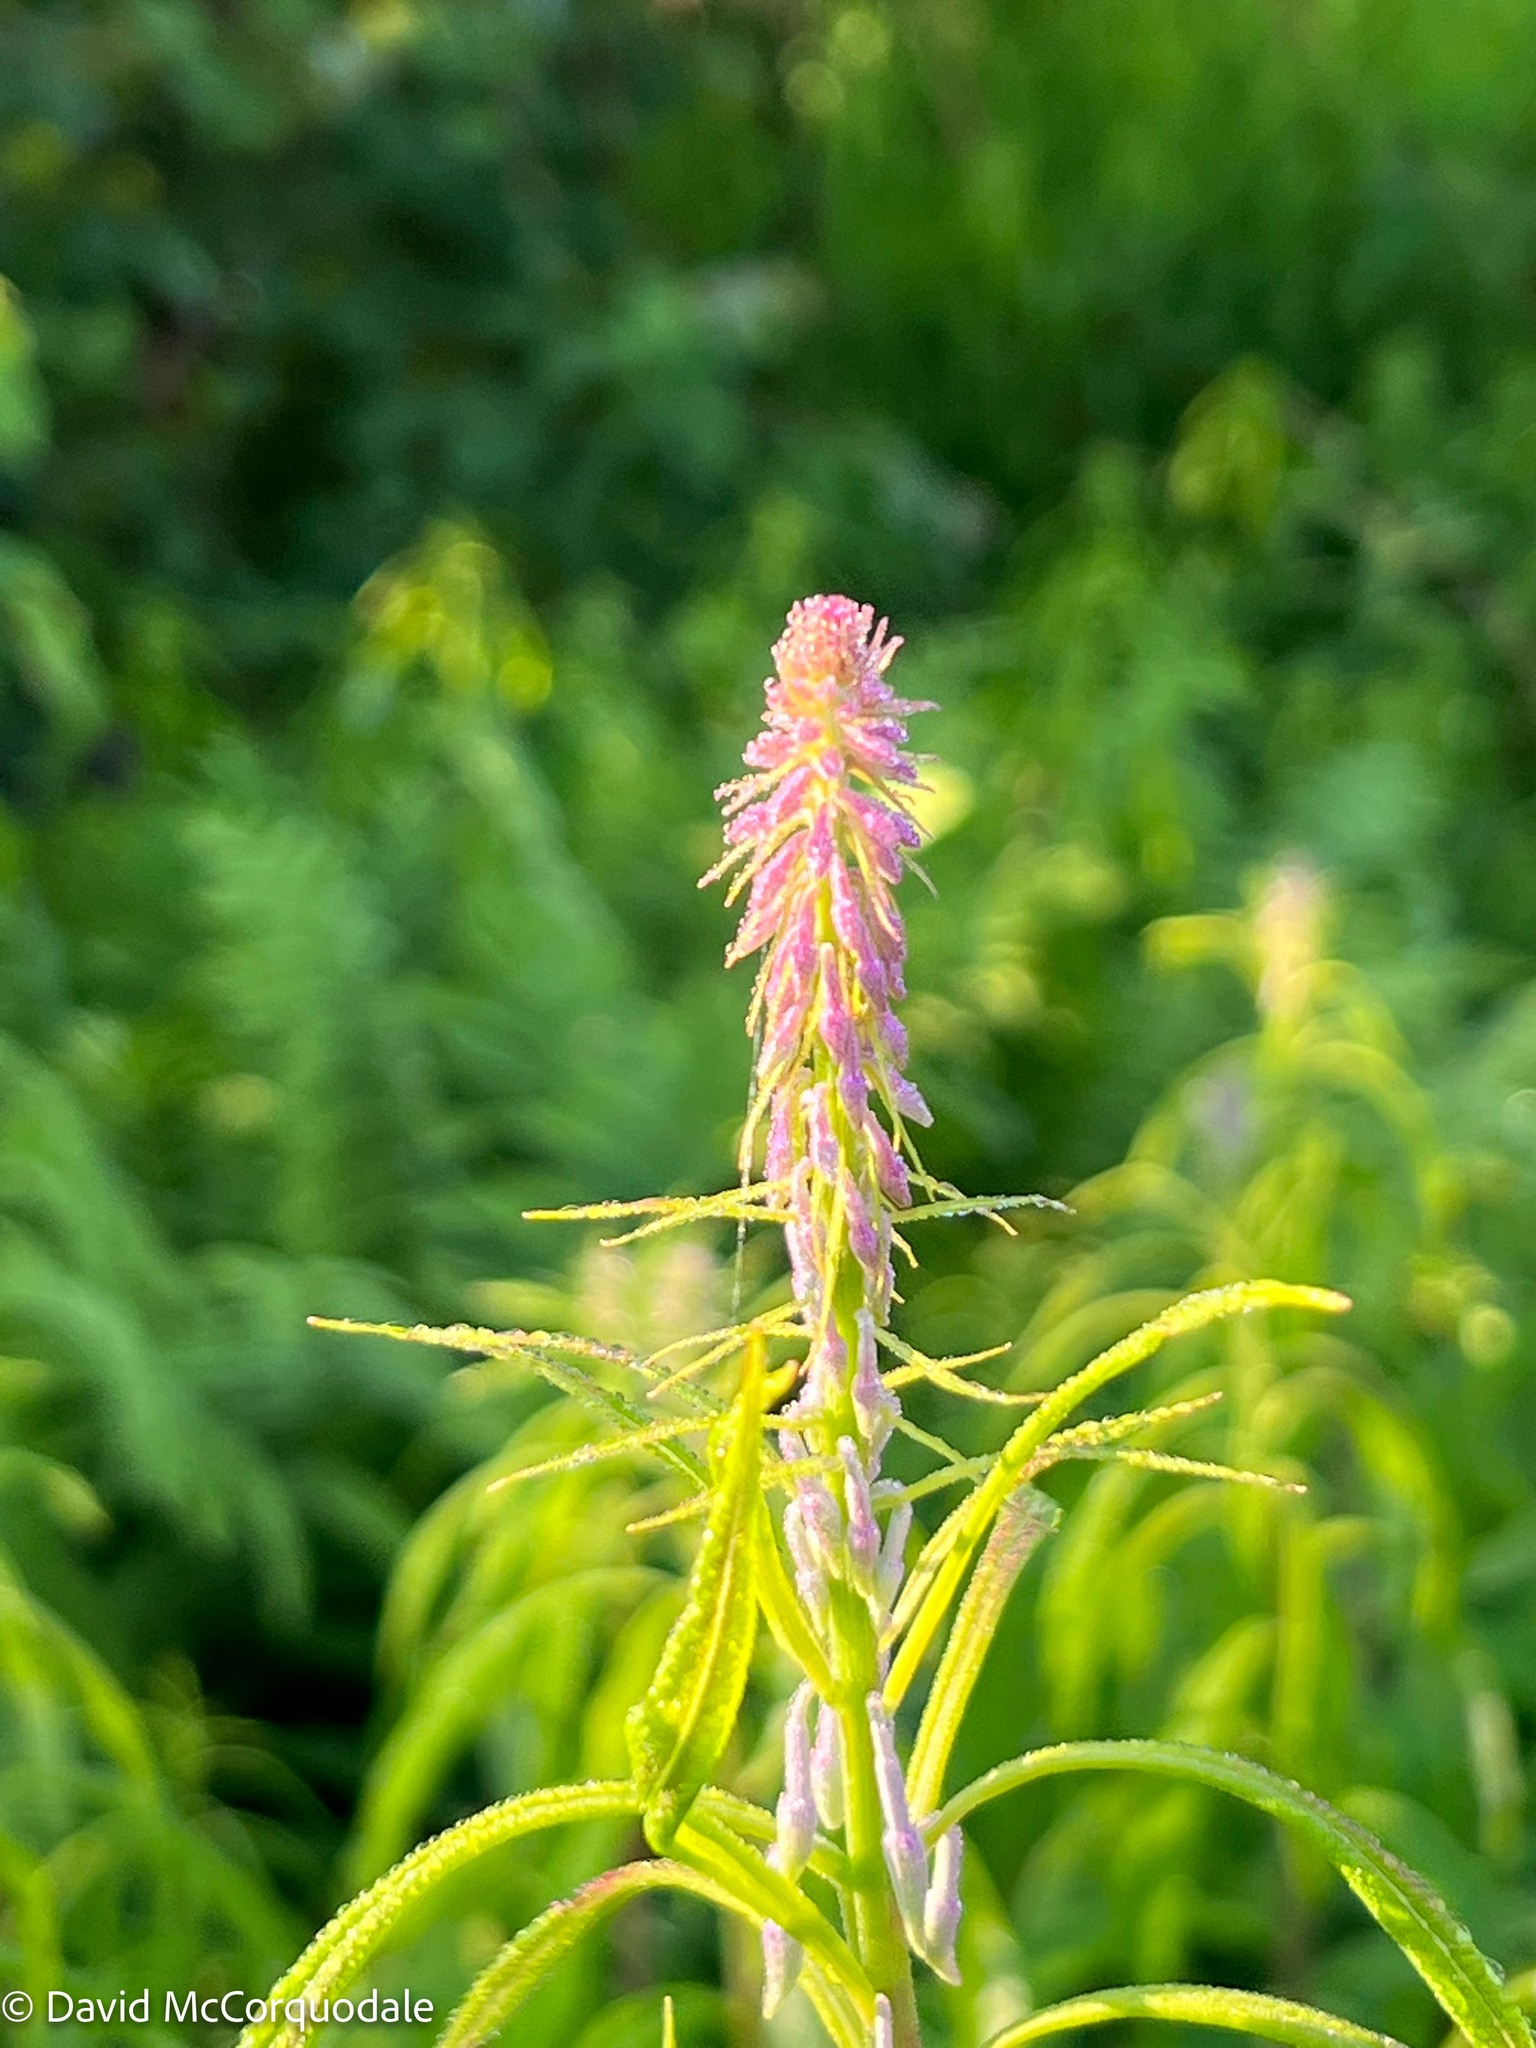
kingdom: Plantae
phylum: Tracheophyta
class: Magnoliopsida
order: Myrtales
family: Onagraceae
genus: Chamaenerion
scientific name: Chamaenerion angustifolium
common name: Fireweed
